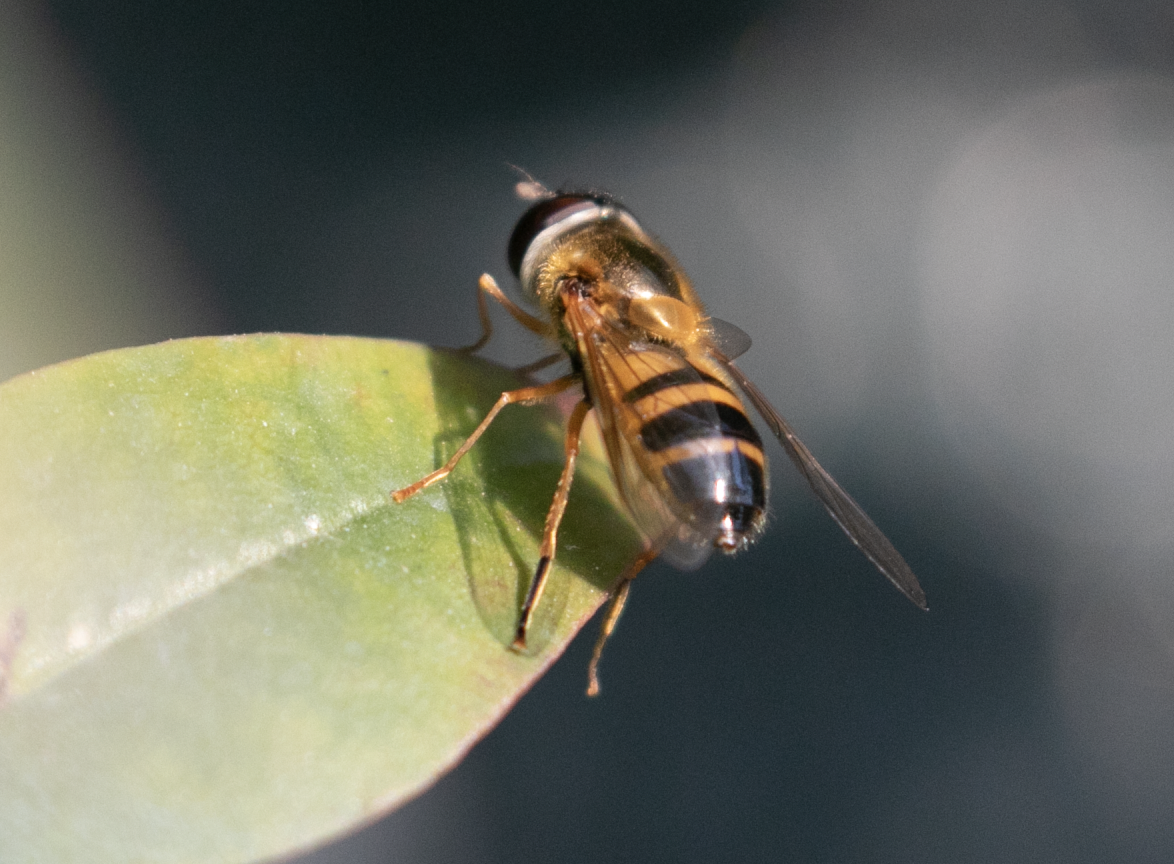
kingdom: Animalia
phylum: Arthropoda
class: Insecta
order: Diptera
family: Syrphidae
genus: Epistrophe
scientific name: Epistrophe eligans
